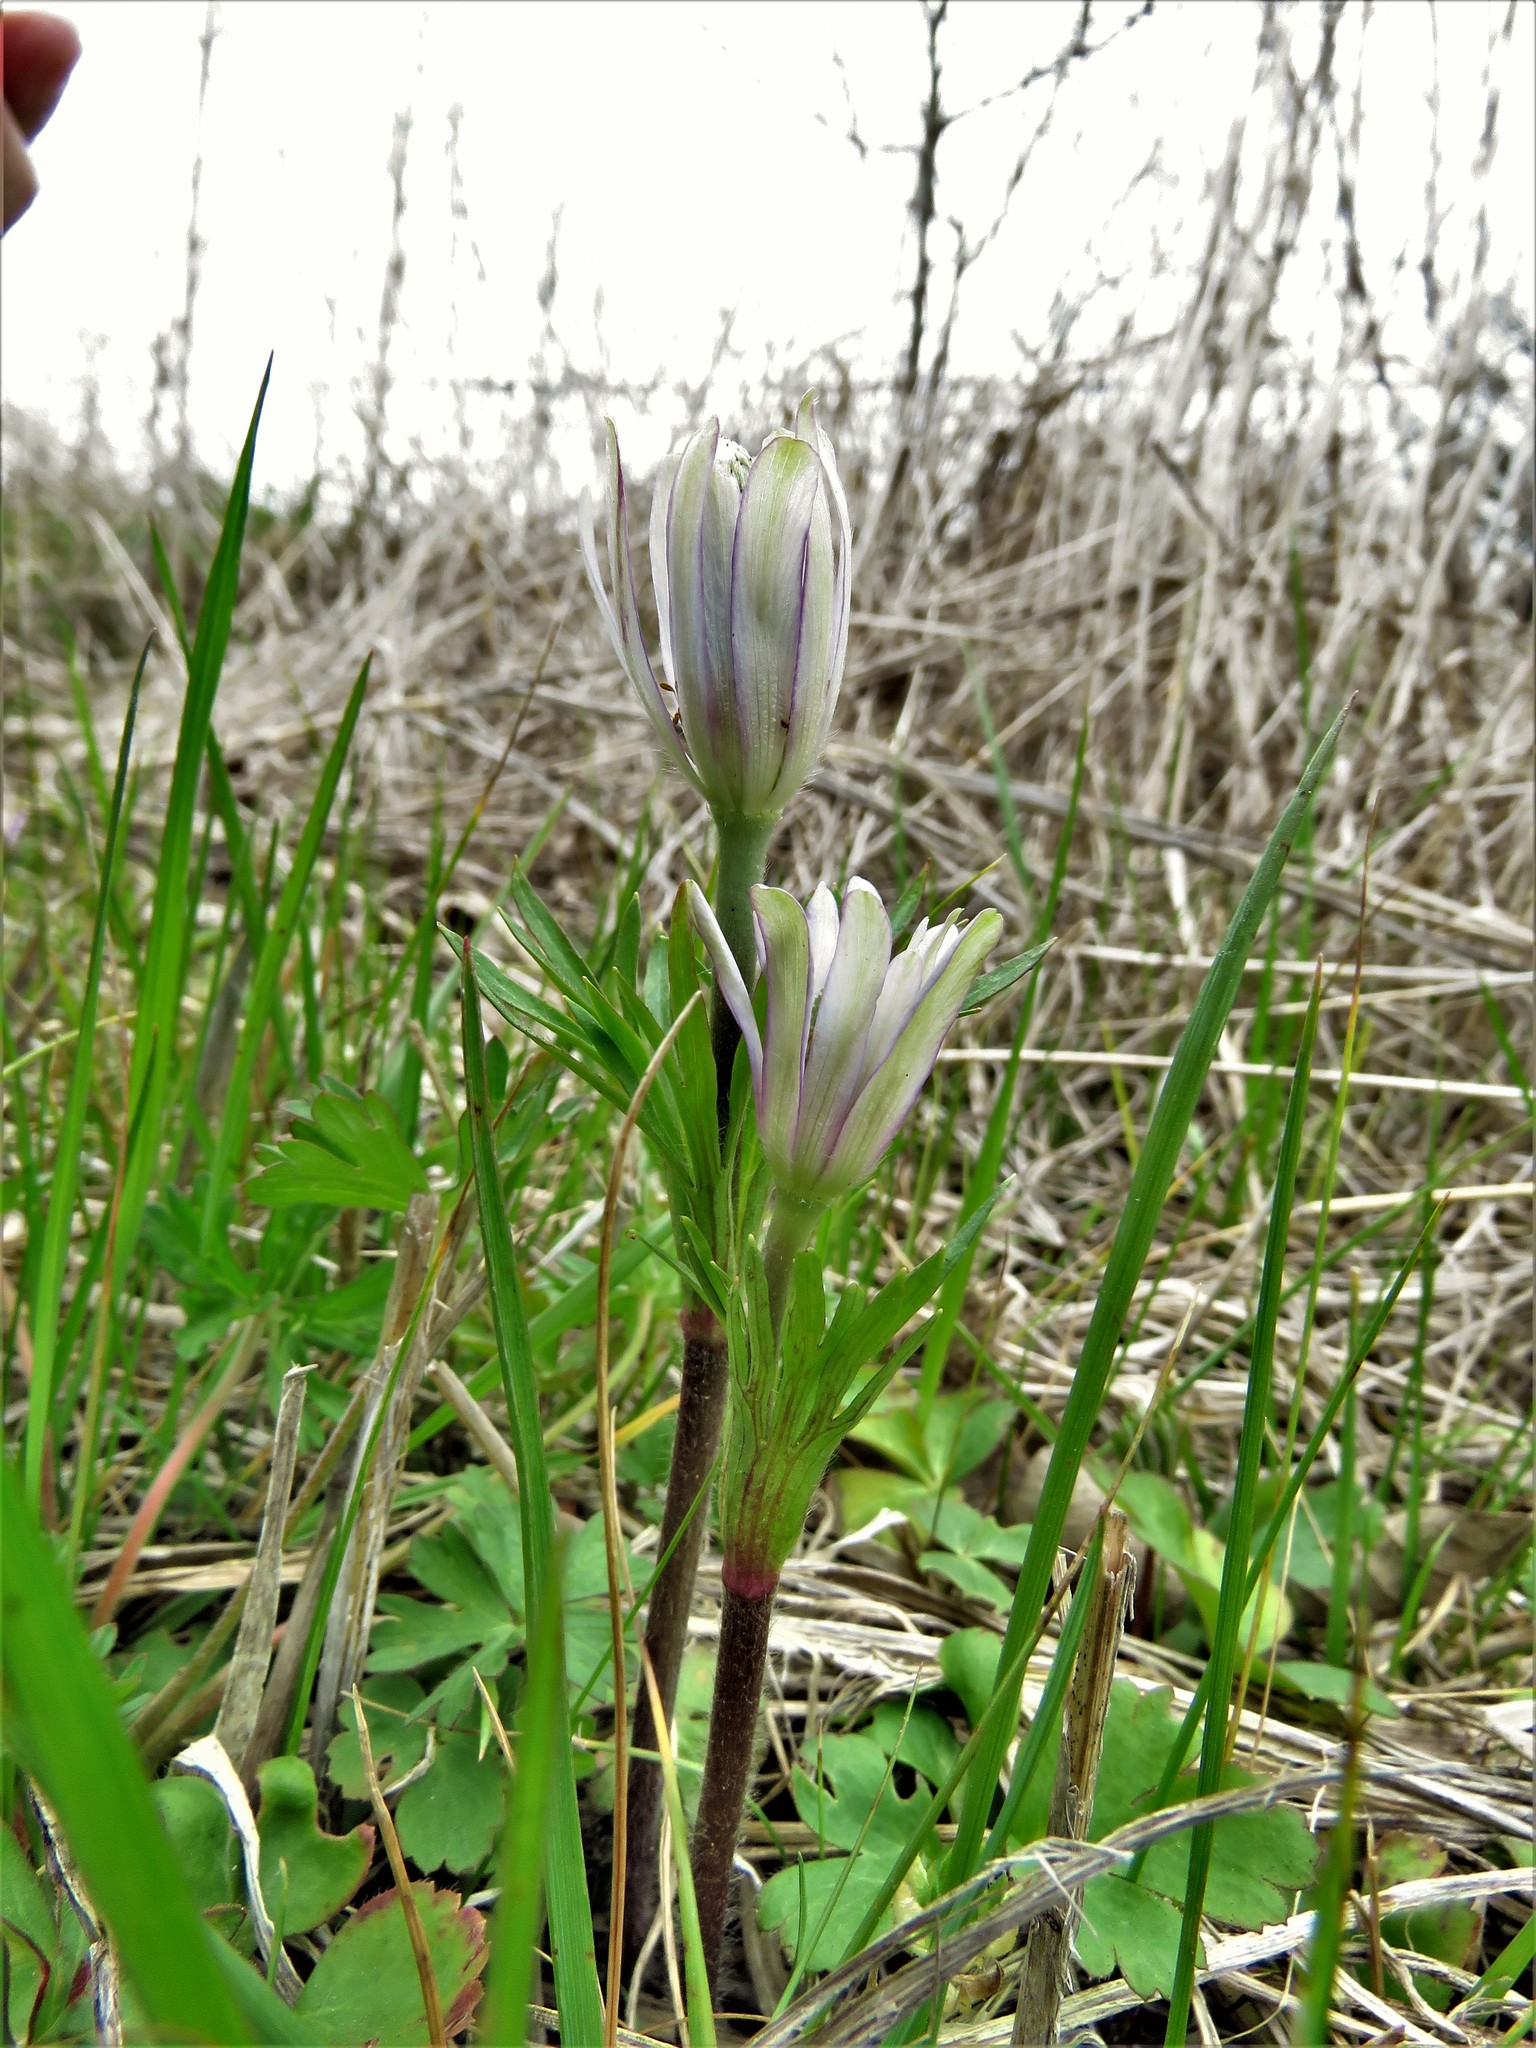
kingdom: Plantae
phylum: Tracheophyta
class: Magnoliopsida
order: Ranunculales
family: Ranunculaceae
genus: Anemone
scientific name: Anemone berlandieri
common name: Ten-petal anemone
